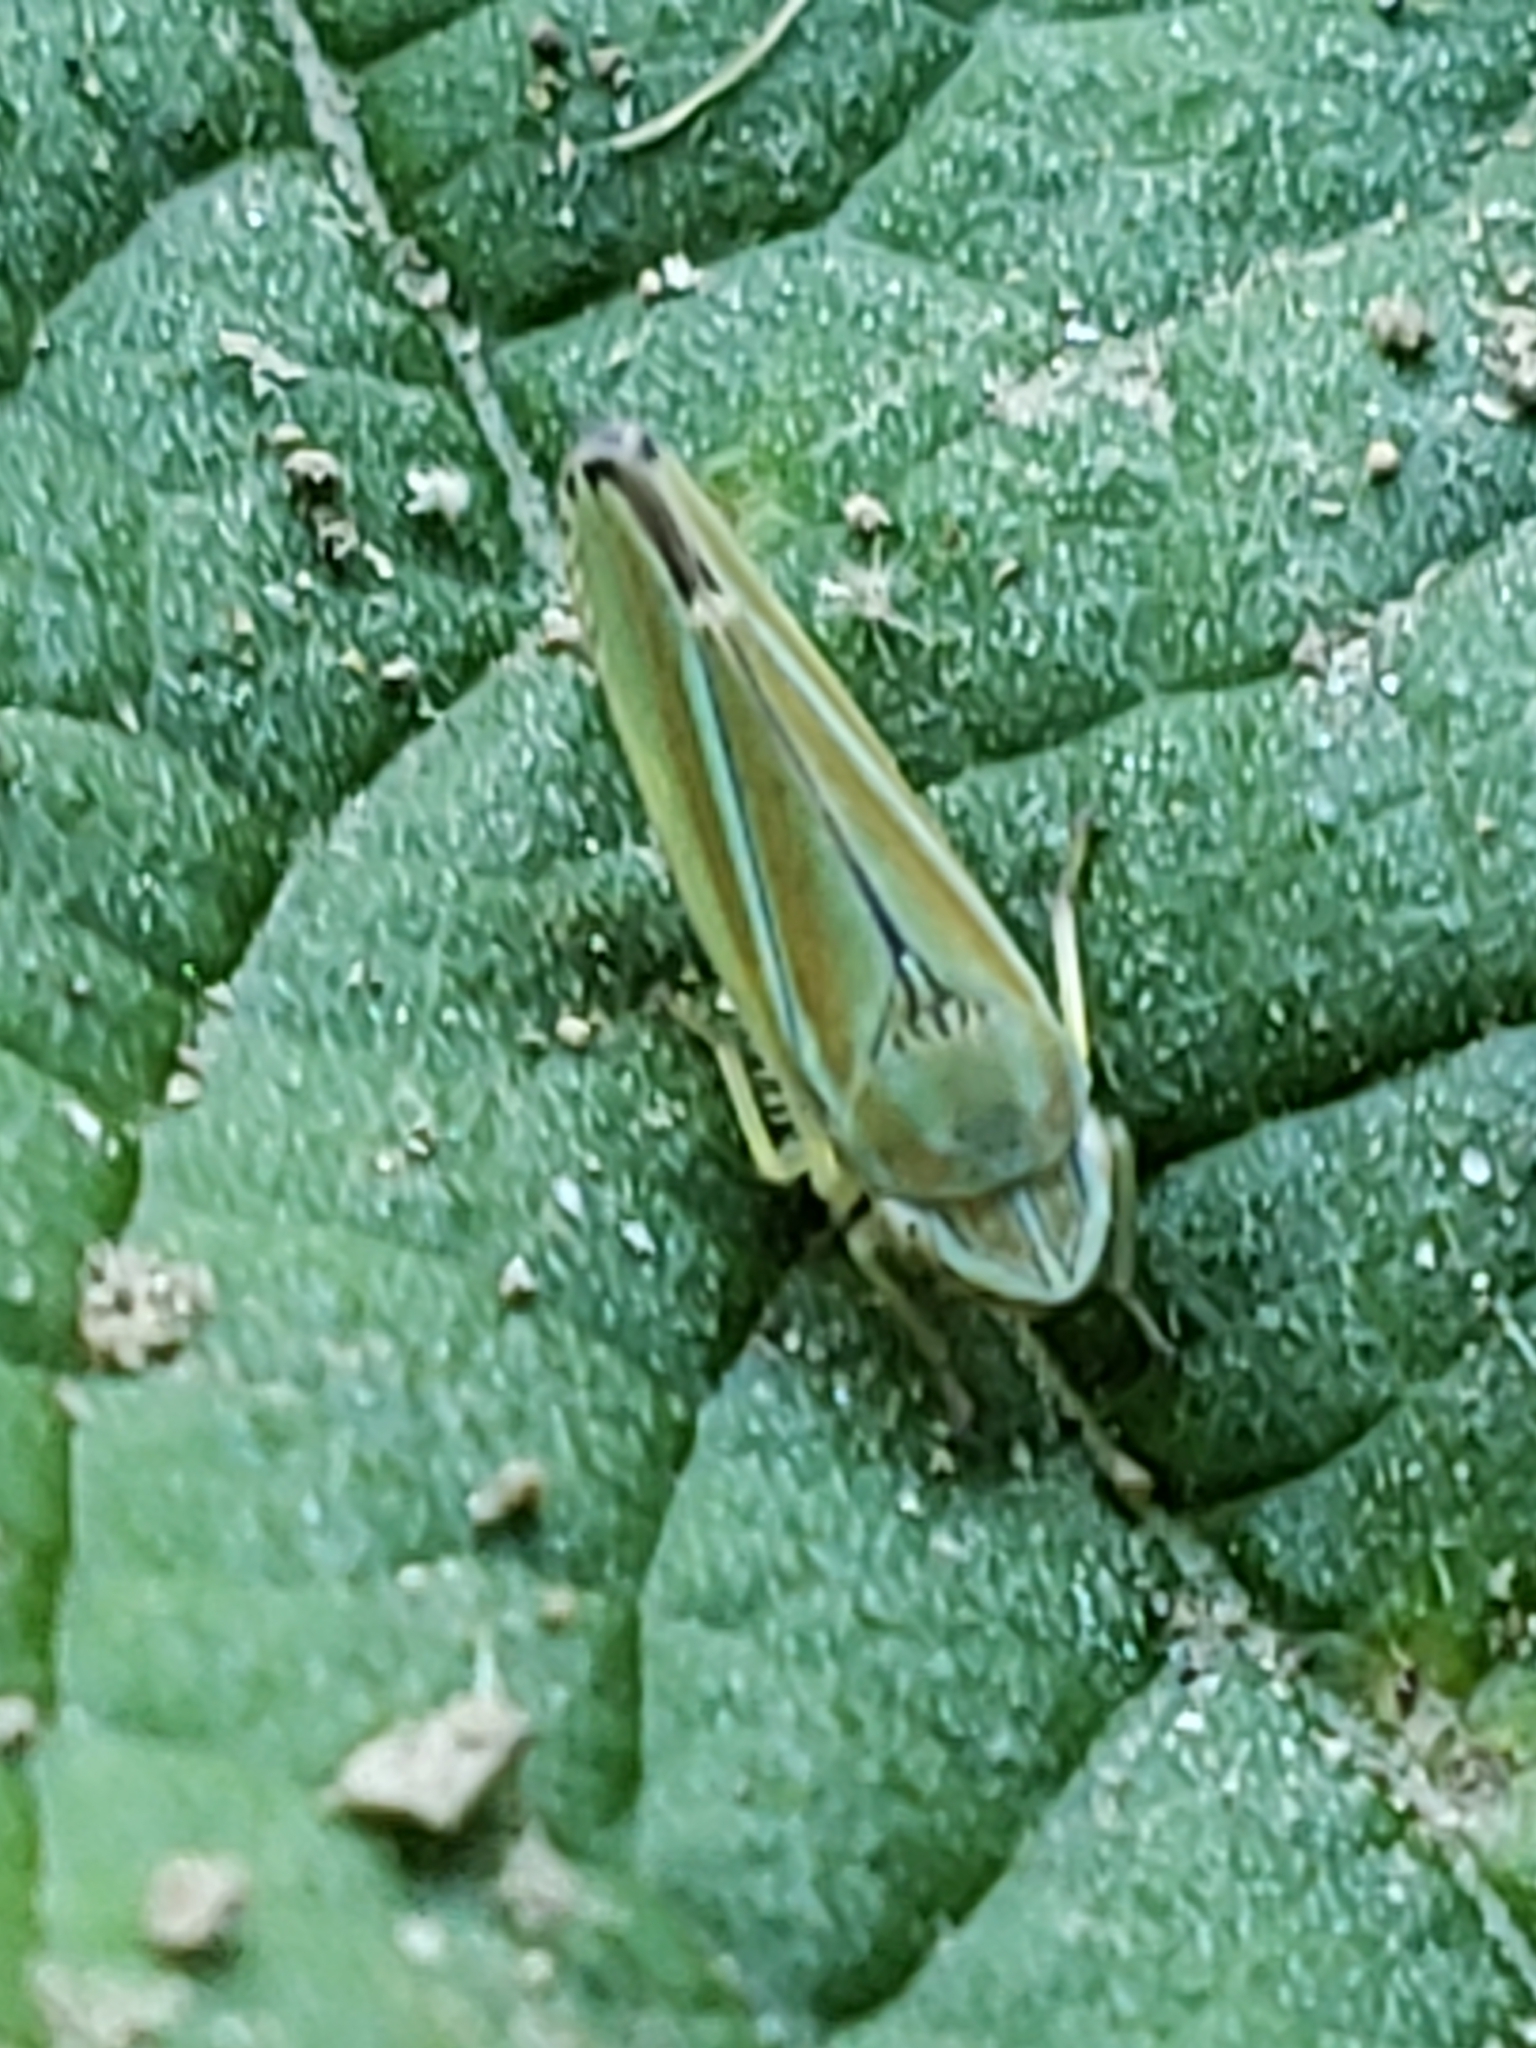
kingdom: Animalia
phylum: Arthropoda
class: Insecta
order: Hemiptera
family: Cicadellidae
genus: Graphocephala
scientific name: Graphocephala versuta
